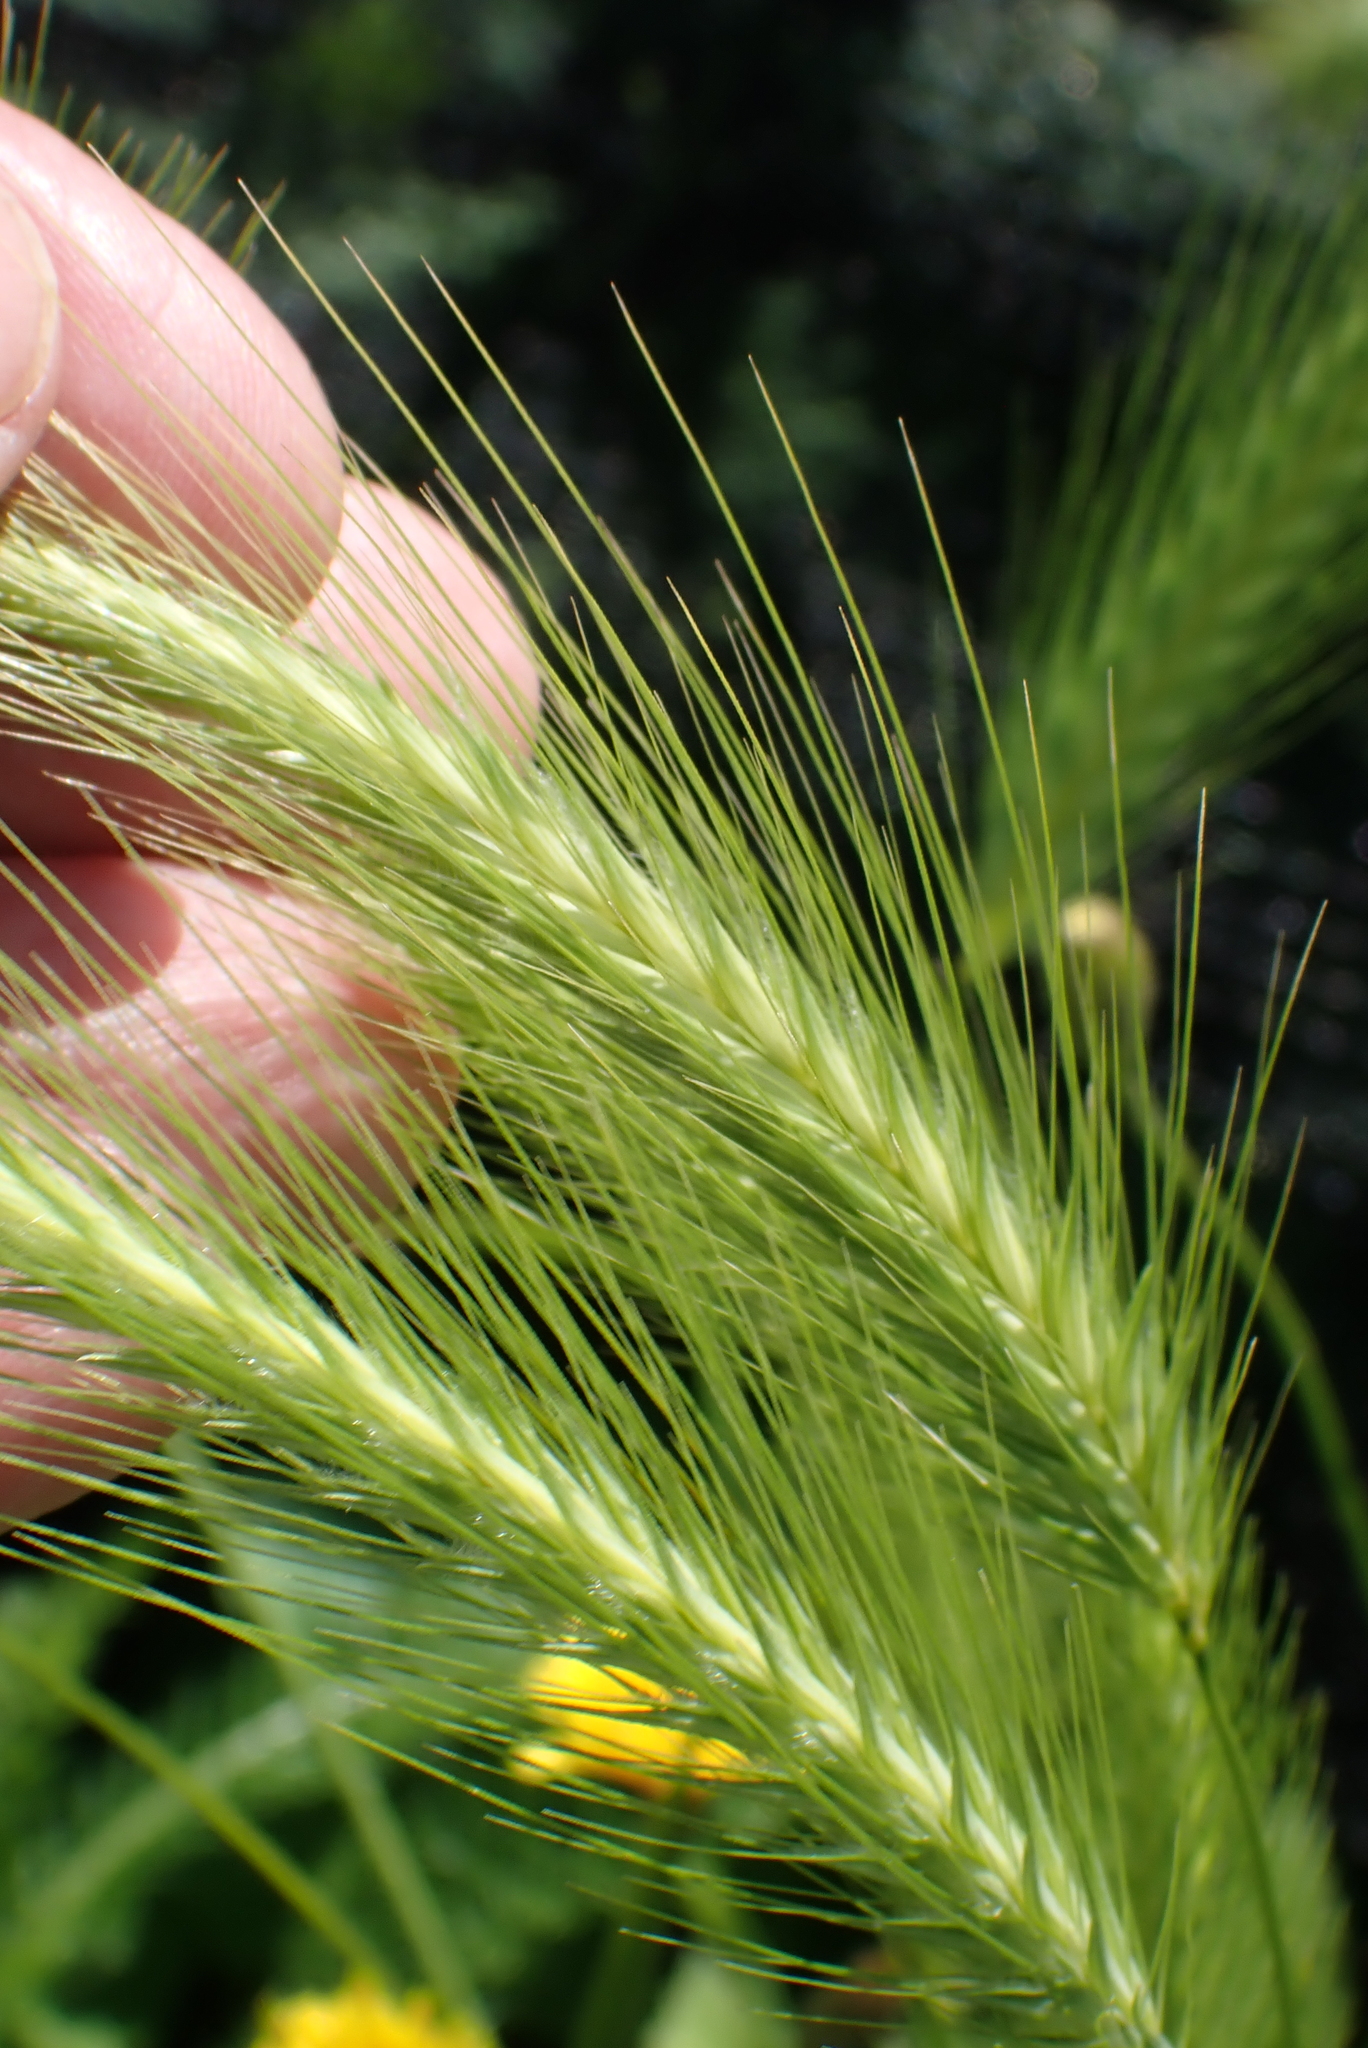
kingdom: Plantae
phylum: Tracheophyta
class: Liliopsida
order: Poales
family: Poaceae
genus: Hordeum
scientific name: Hordeum murinum
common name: Wall barley
